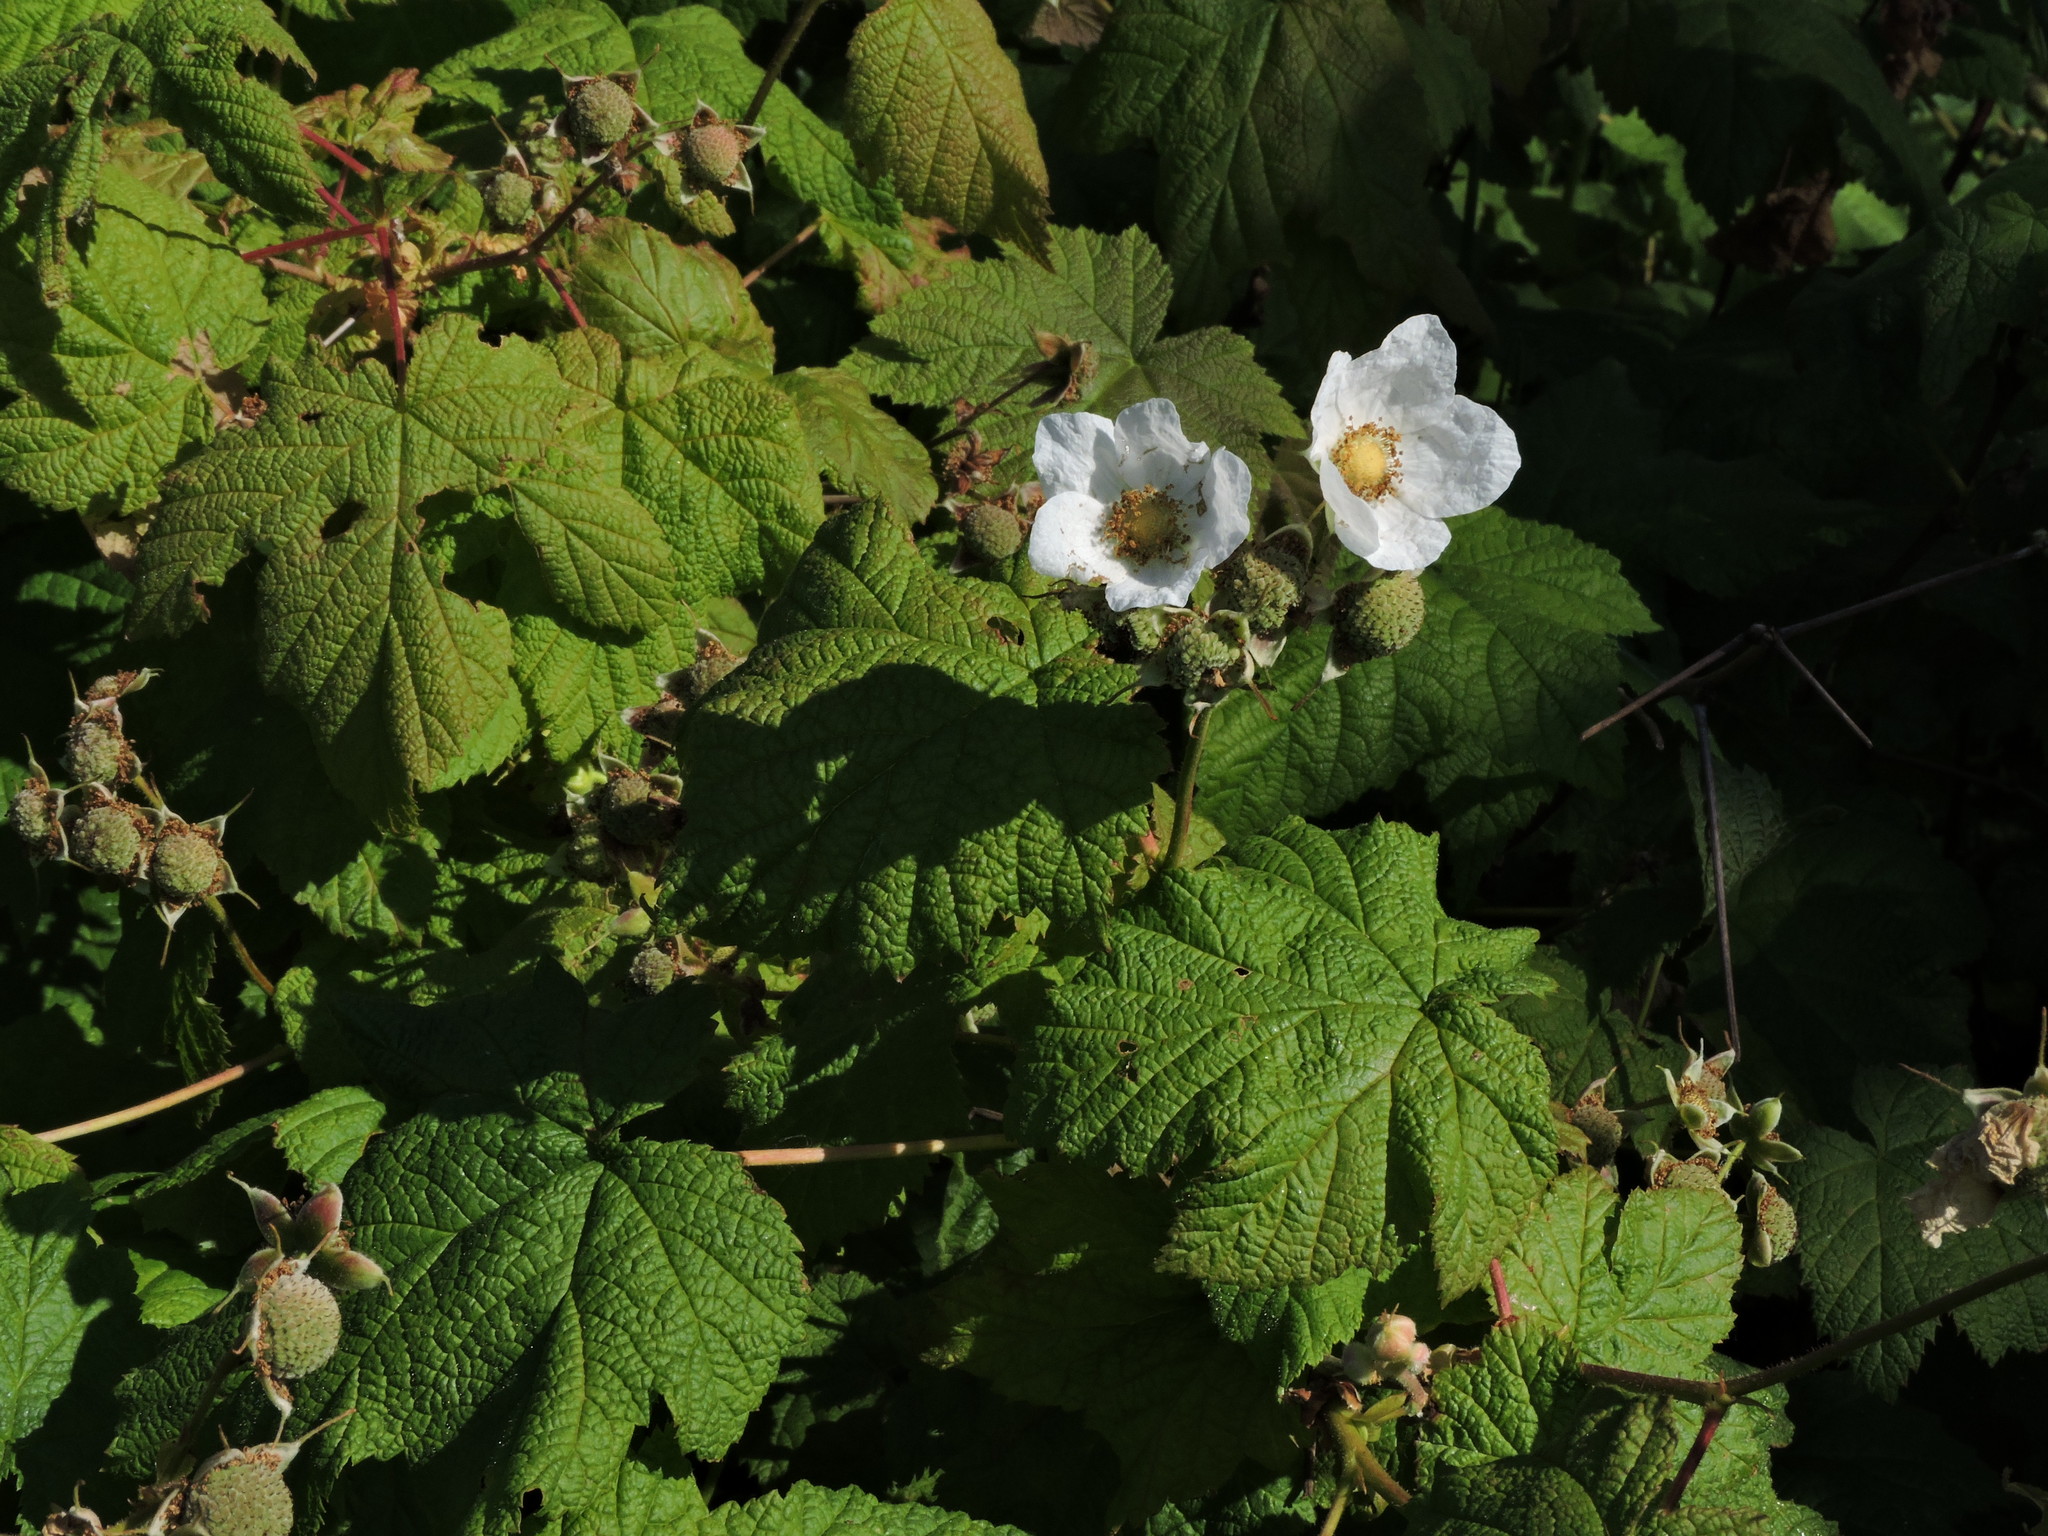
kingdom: Plantae
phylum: Tracheophyta
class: Magnoliopsida
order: Rosales
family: Rosaceae
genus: Rubus
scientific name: Rubus parviflorus
